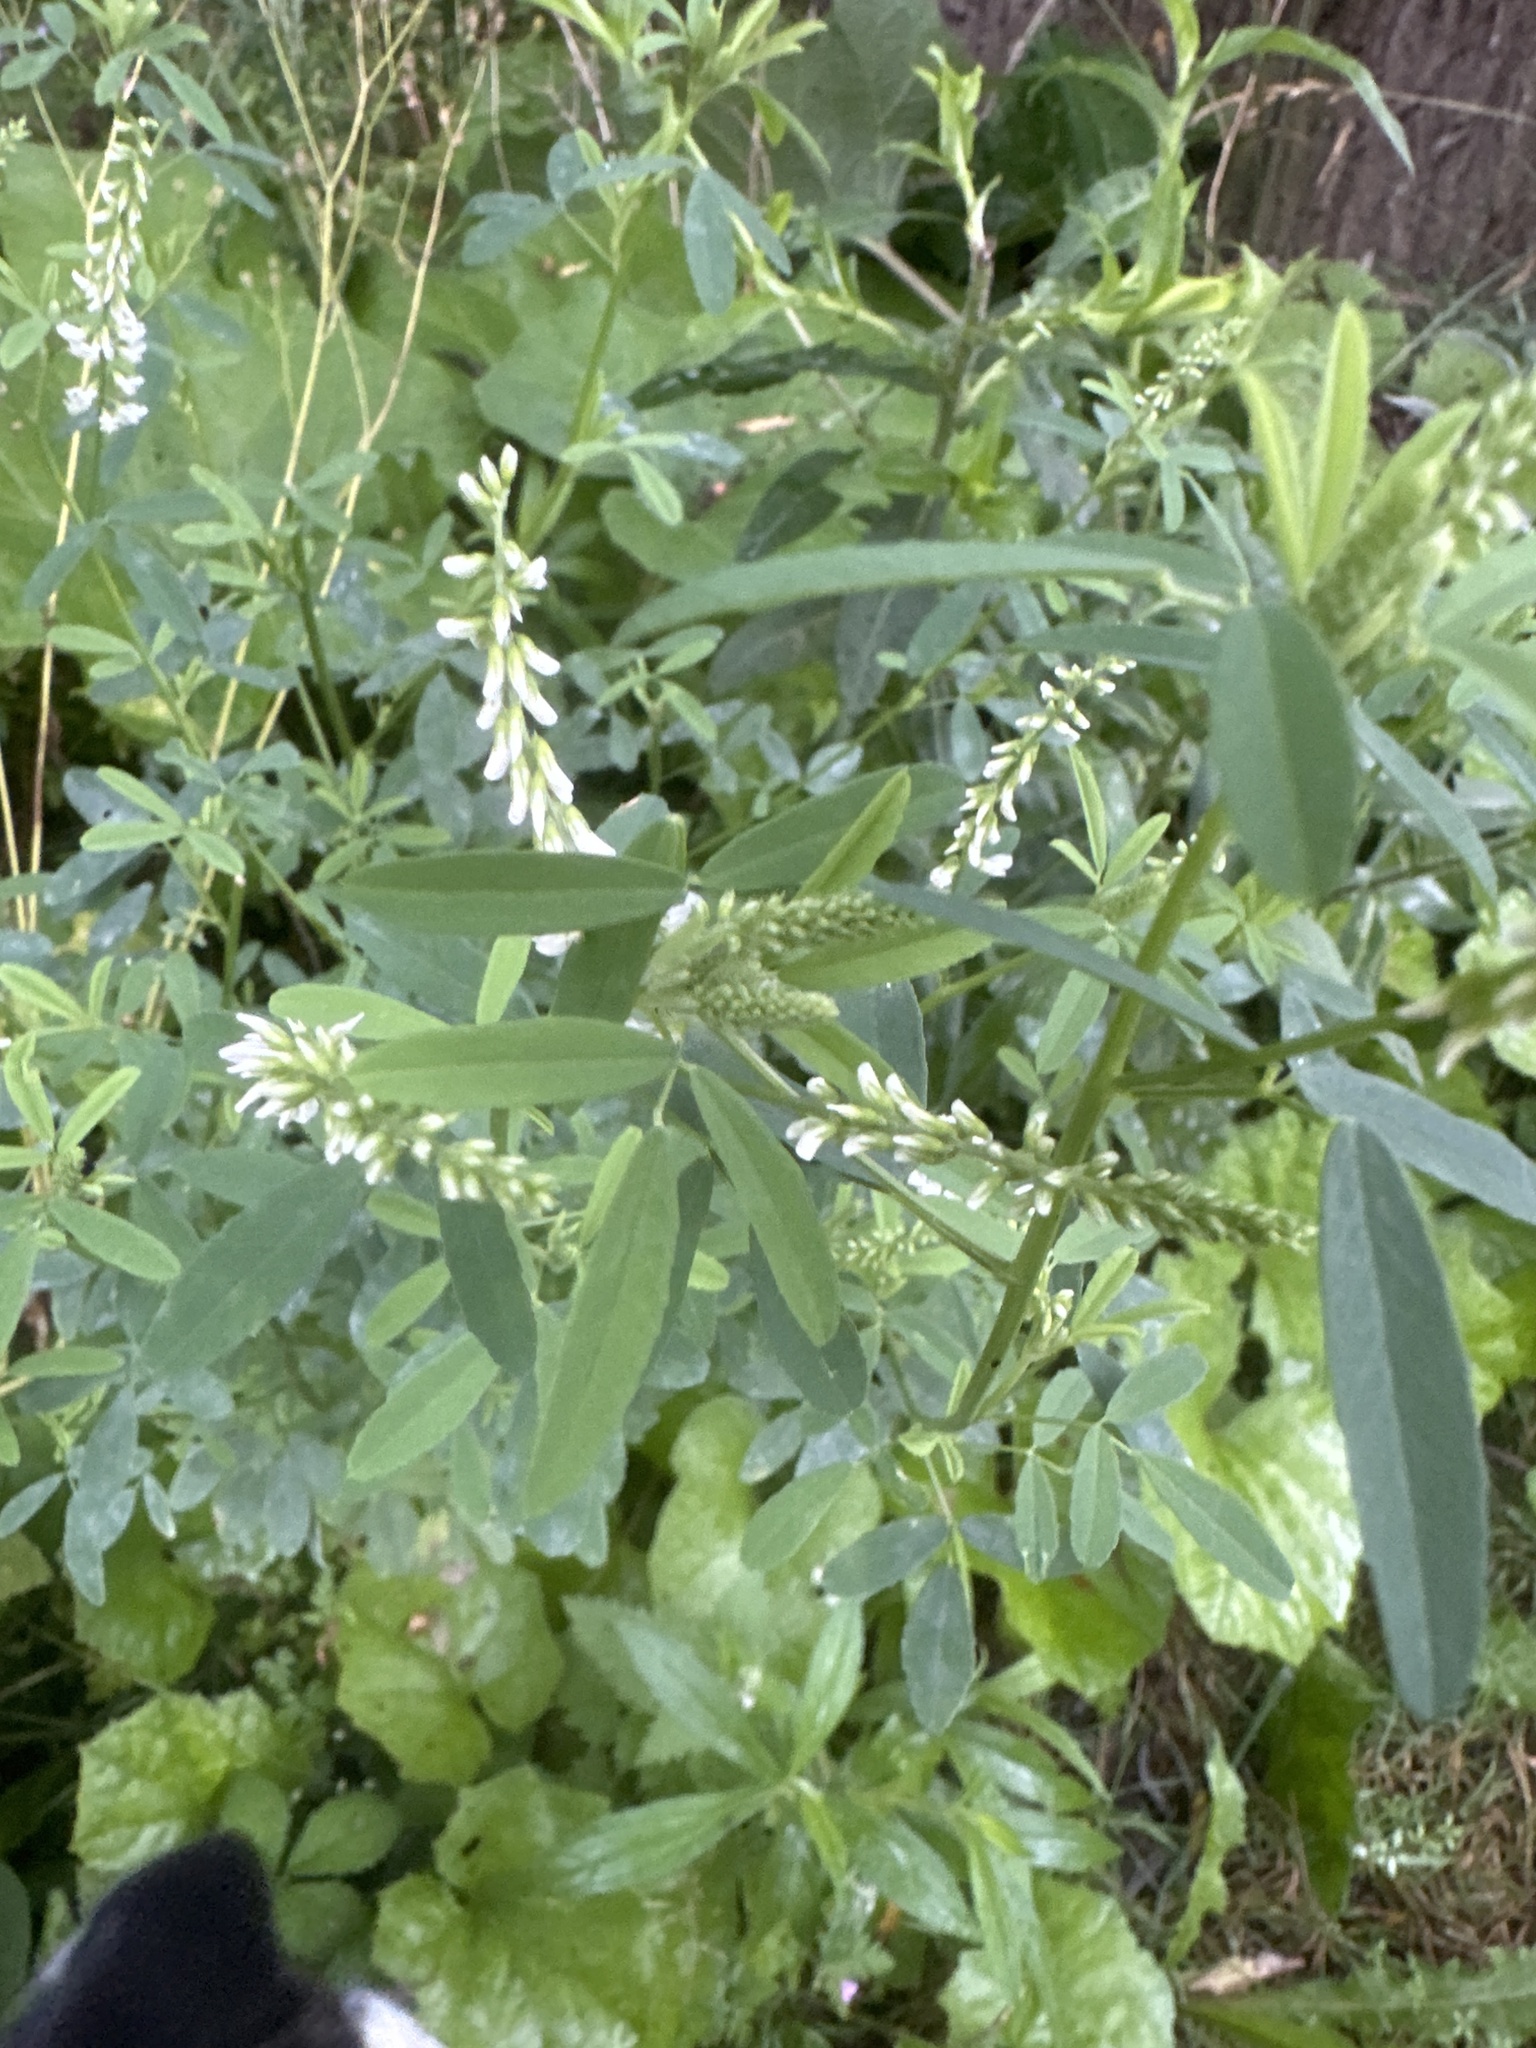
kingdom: Plantae
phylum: Tracheophyta
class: Magnoliopsida
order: Fabales
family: Fabaceae
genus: Melilotus
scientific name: Melilotus albus
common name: White melilot
